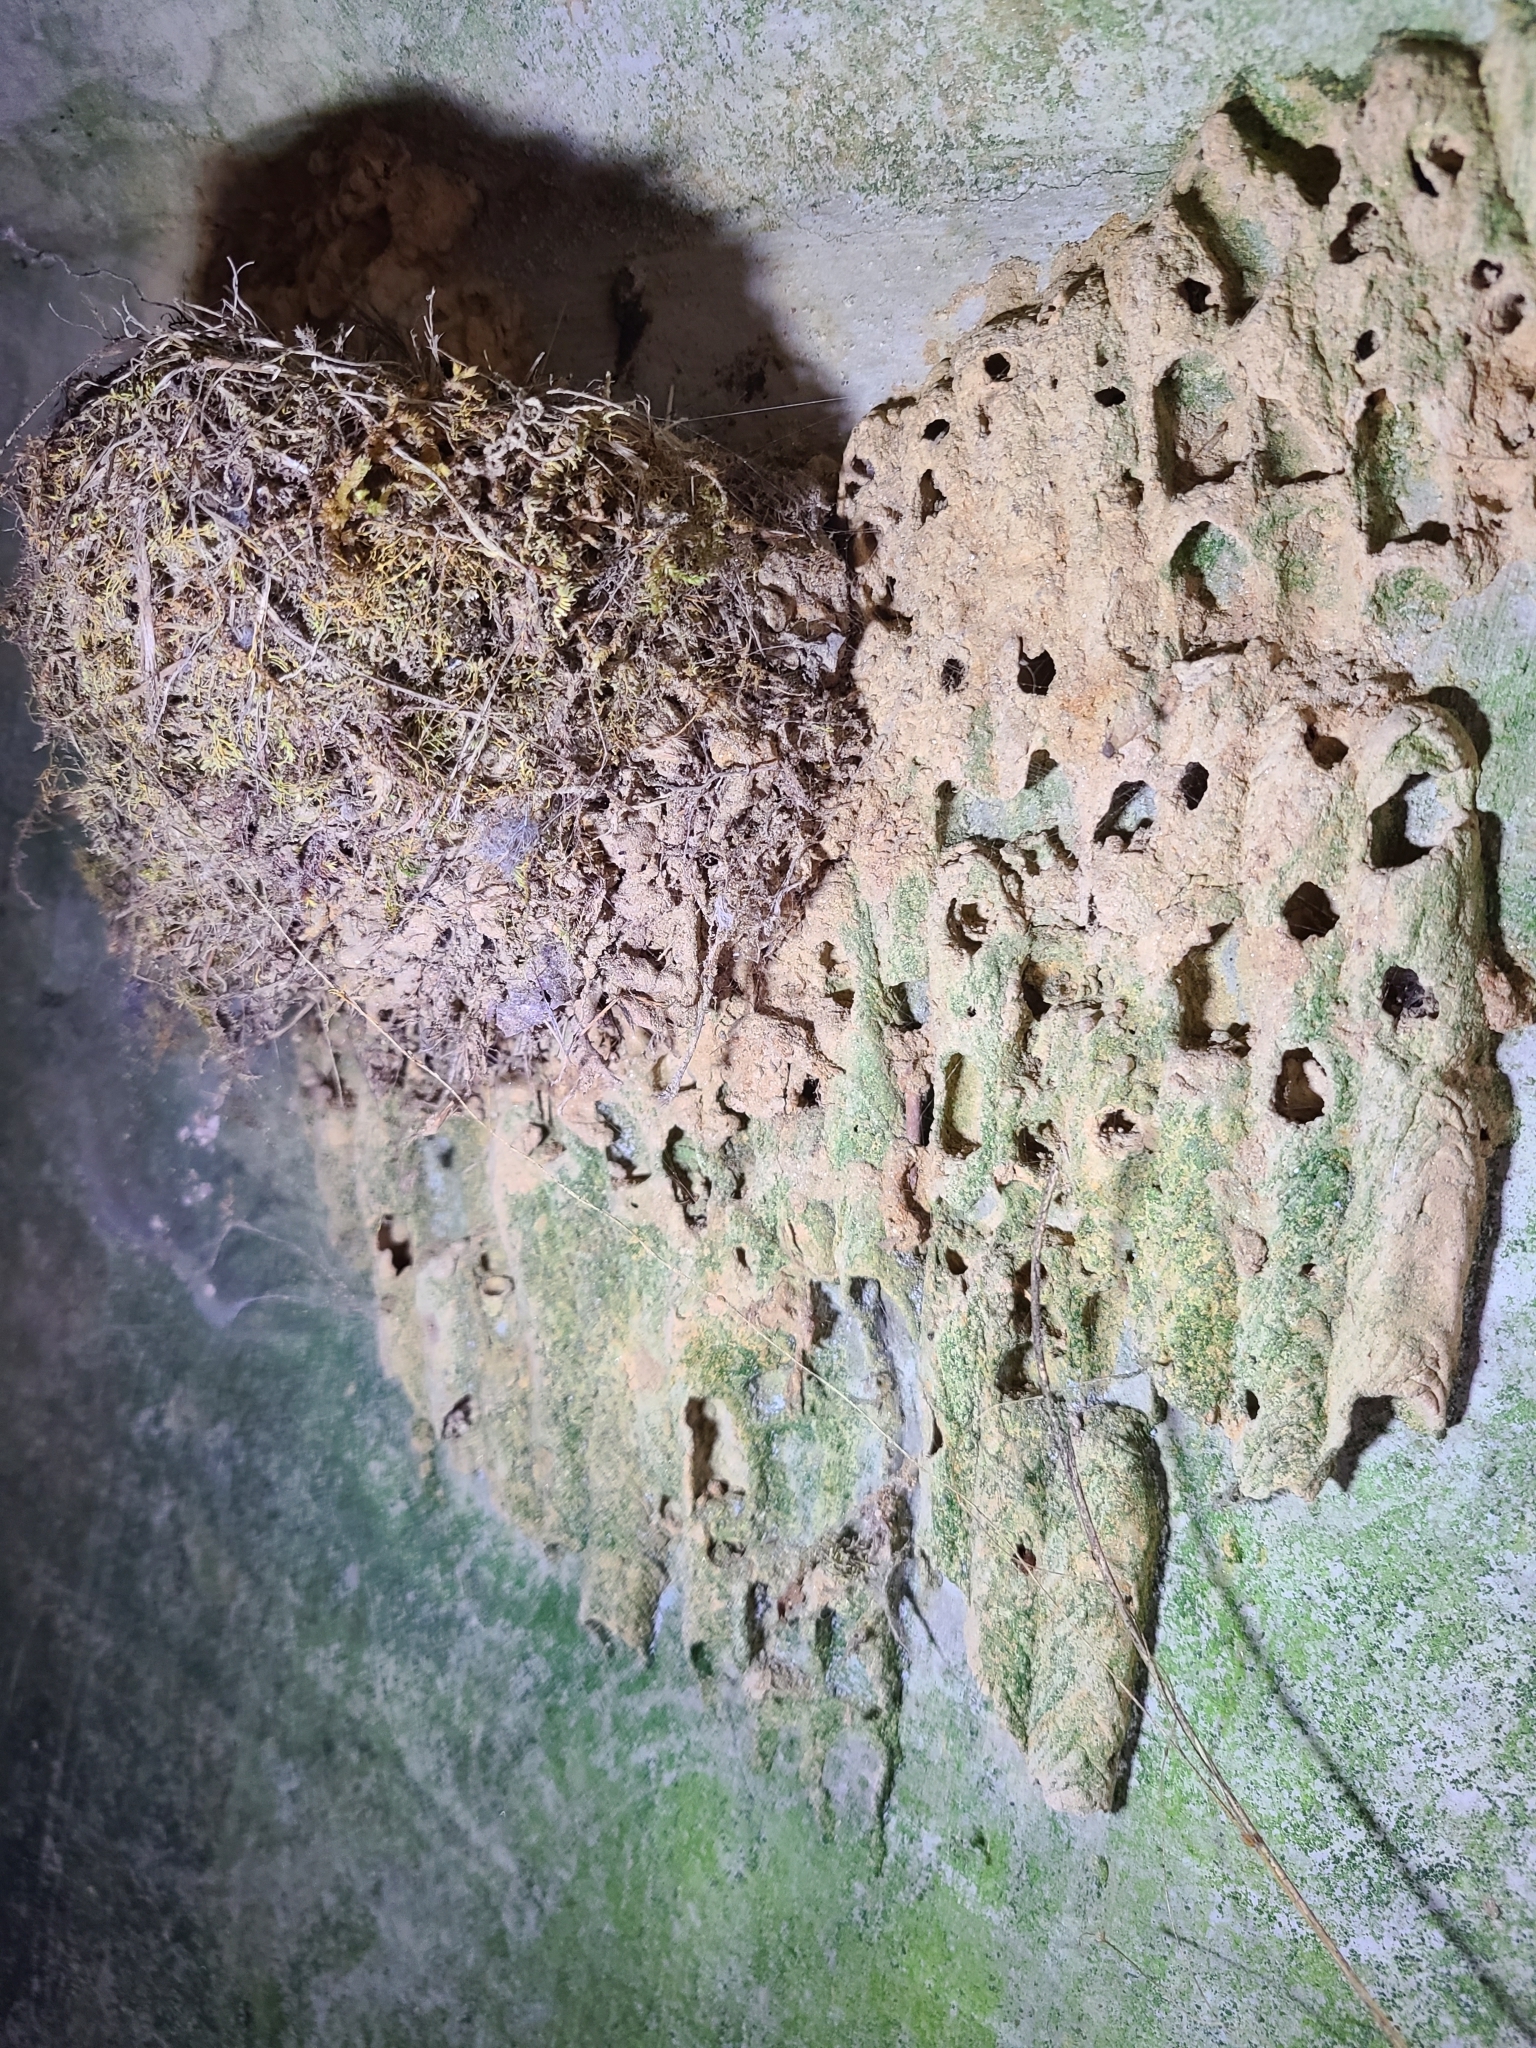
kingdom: Animalia
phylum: Arthropoda
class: Insecta
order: Hymenoptera
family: Crabronidae
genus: Trypoxylon
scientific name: Trypoxylon politum
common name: Organ-pipe mud-dauber wasp
